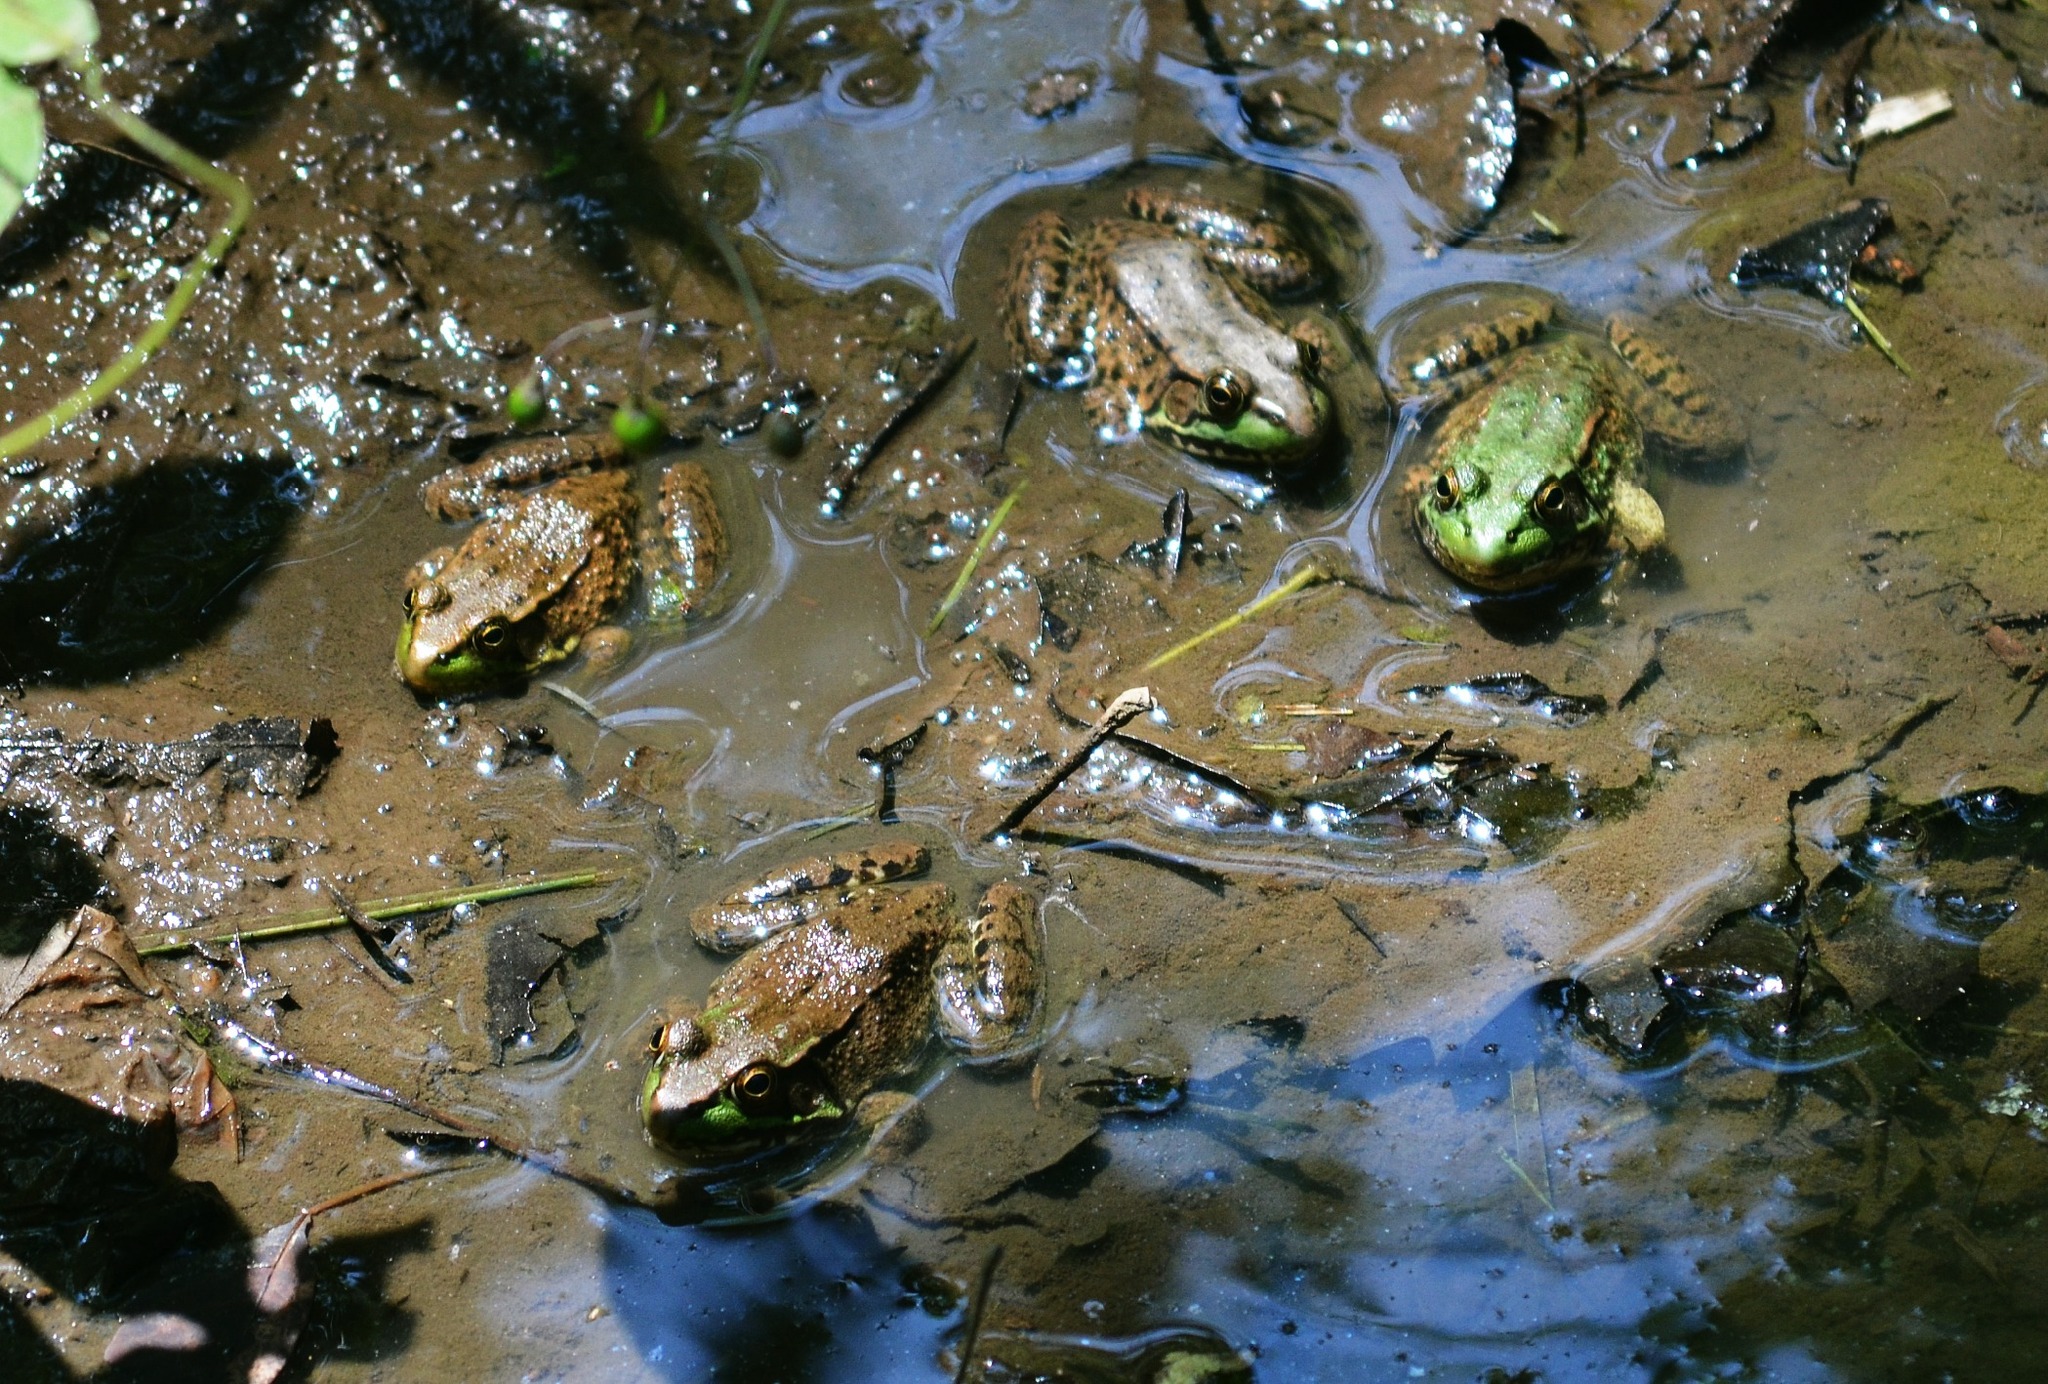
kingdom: Animalia
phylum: Chordata
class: Amphibia
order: Anura
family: Ranidae
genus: Lithobates
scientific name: Lithobates clamitans
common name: Green frog
